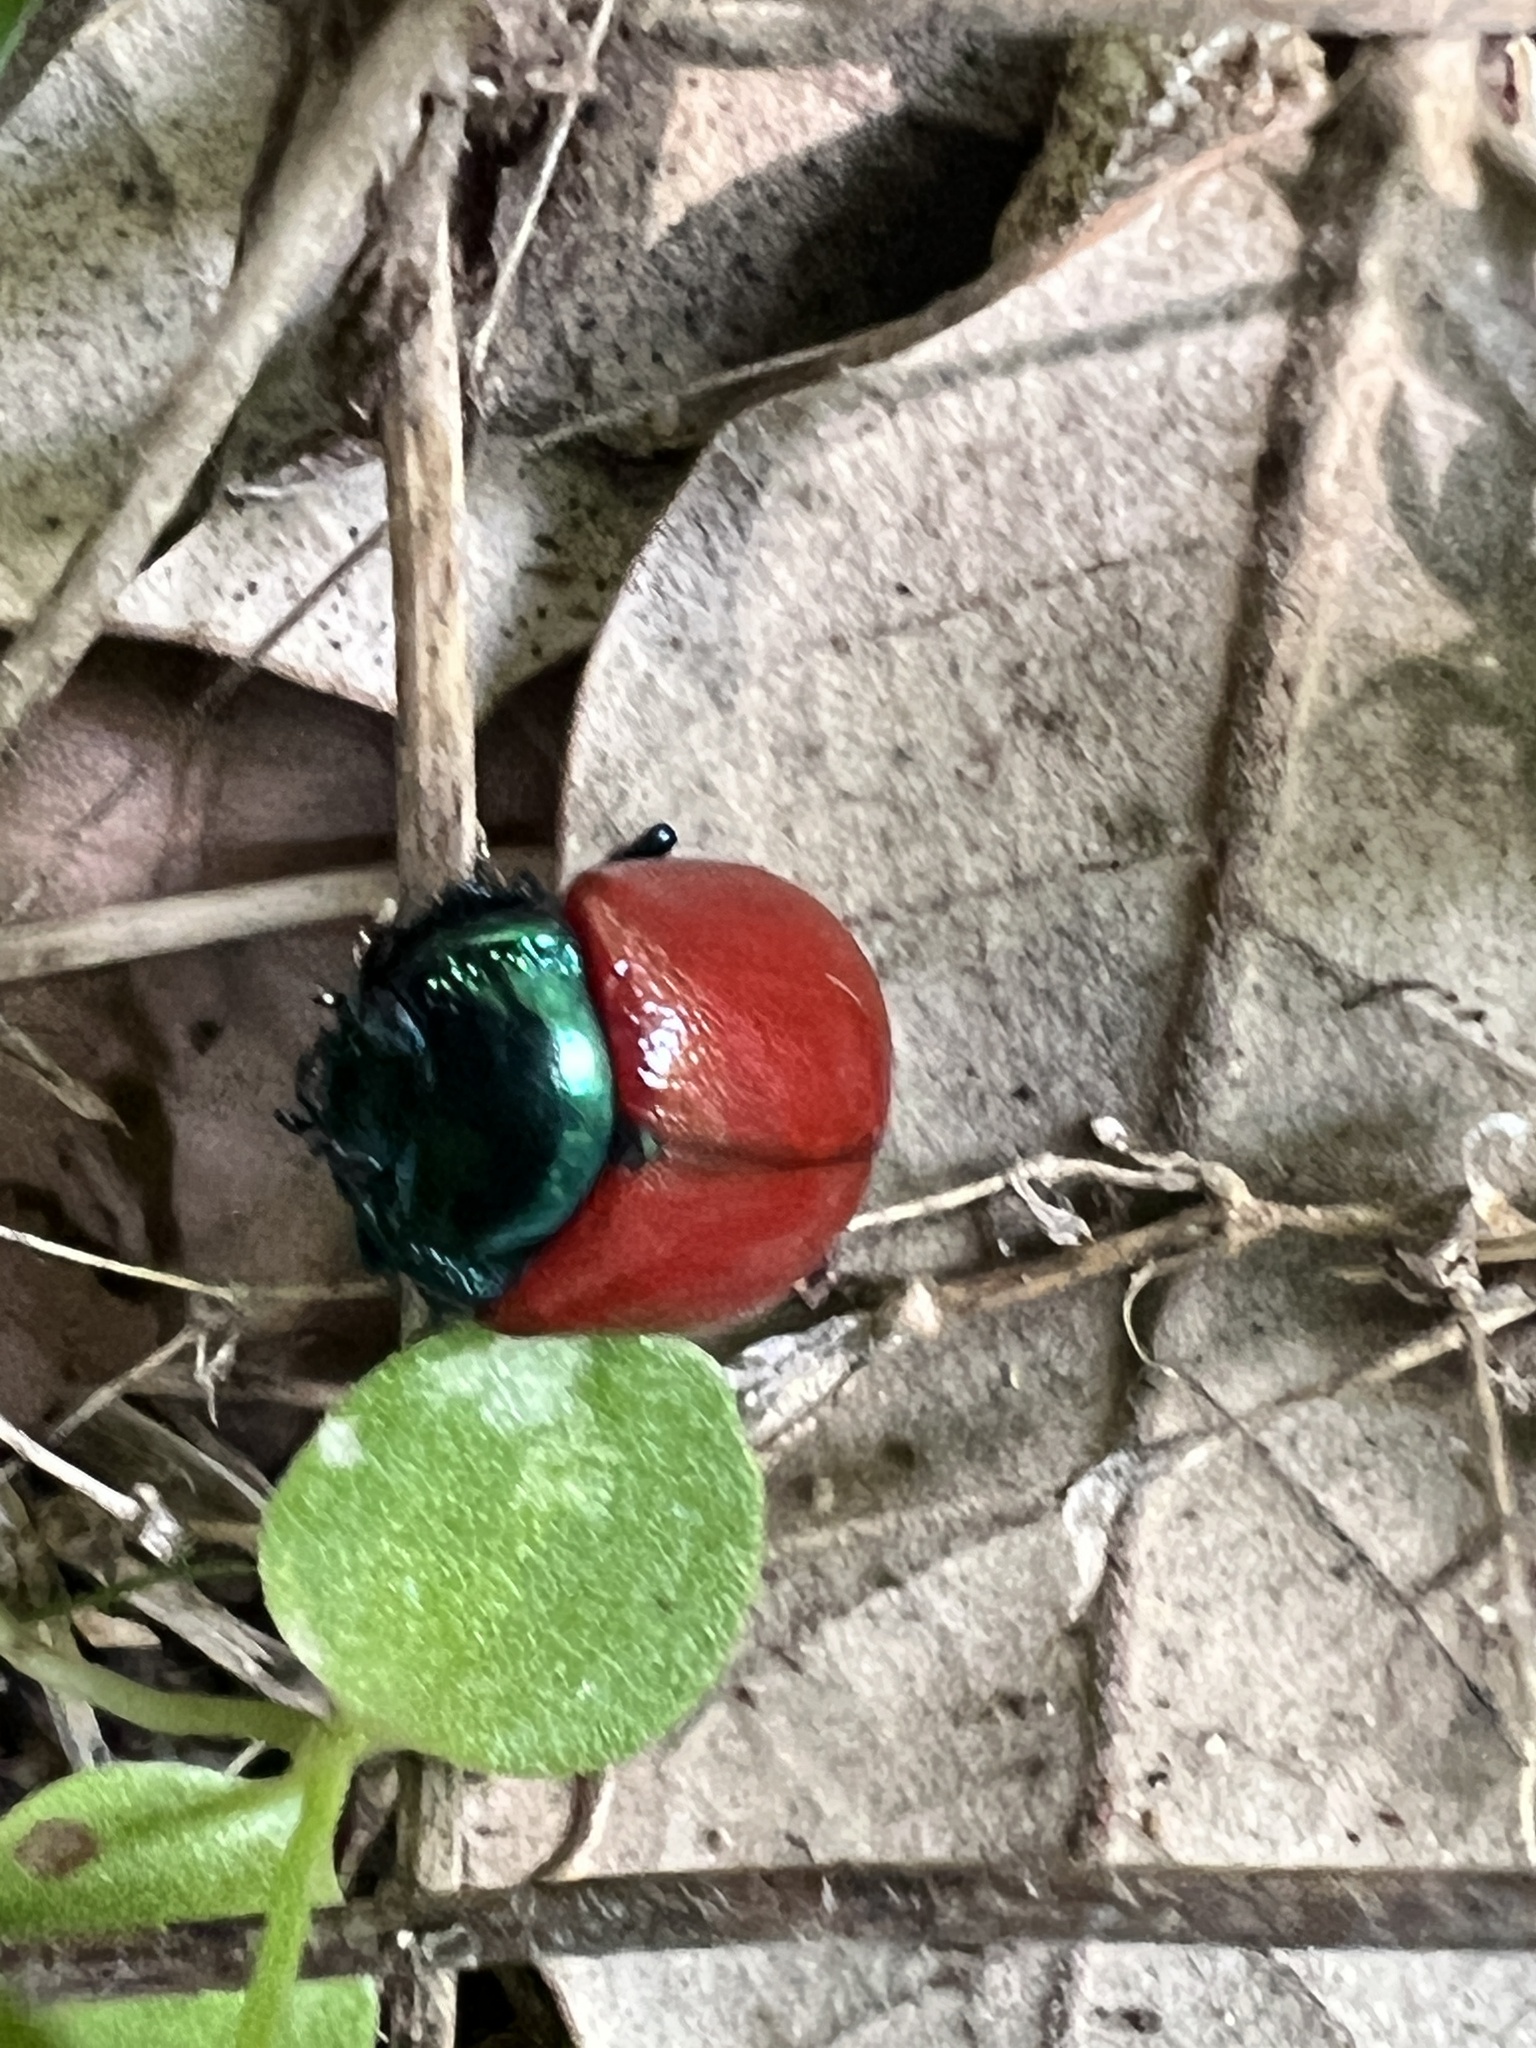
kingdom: Animalia
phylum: Arthropoda
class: Insecta
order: Coleoptera
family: Chrysomelidae
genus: Chrysolina
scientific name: Chrysolina grossa
